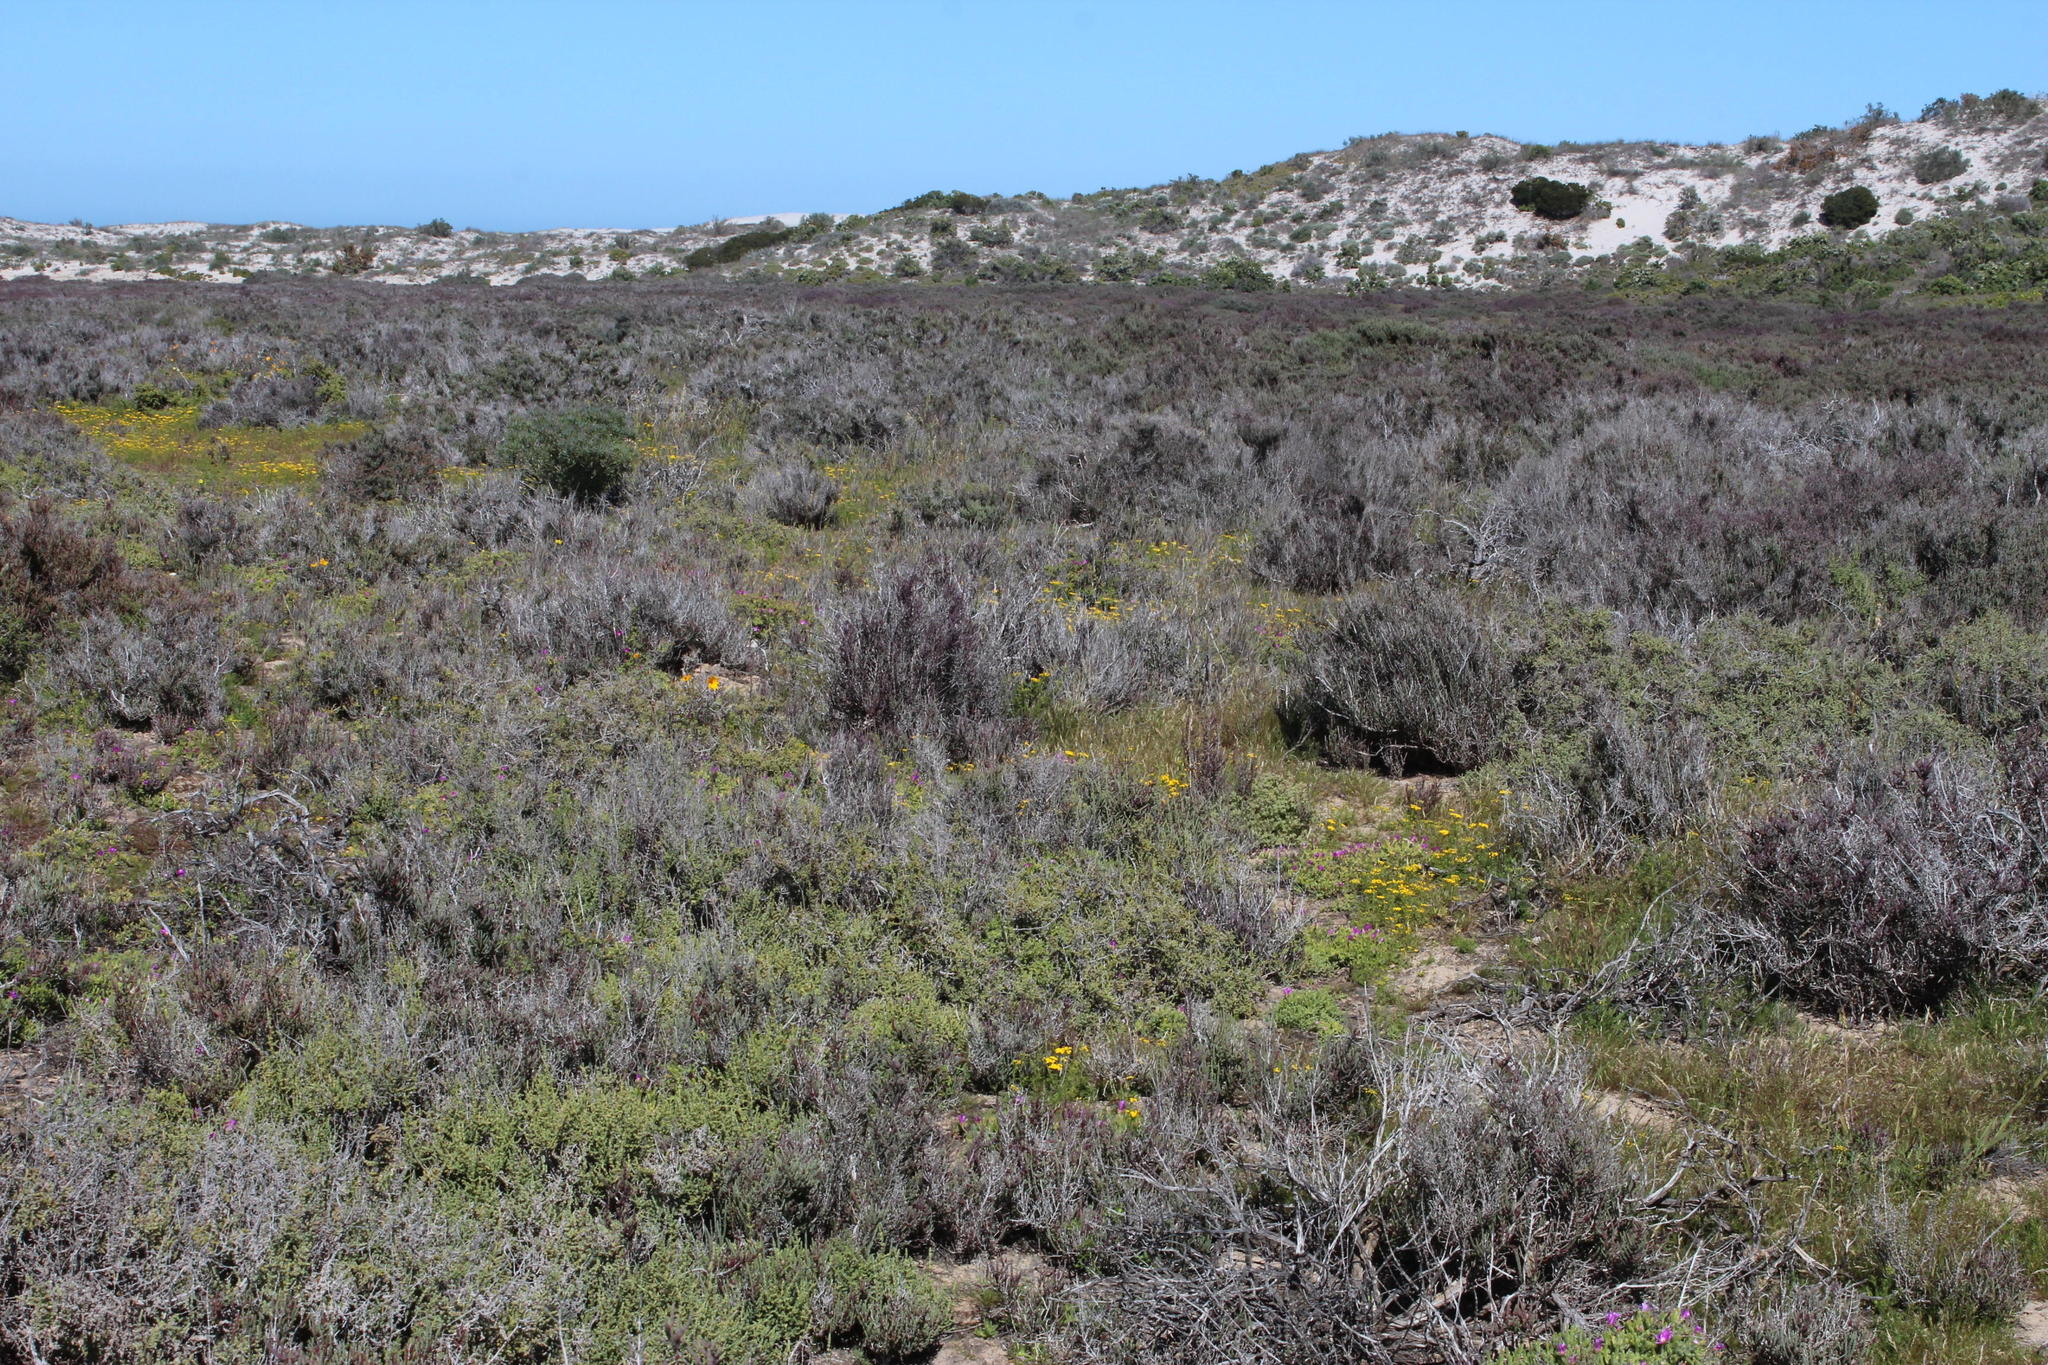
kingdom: Plantae
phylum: Tracheophyta
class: Magnoliopsida
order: Caryophyllales
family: Amaranthaceae
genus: Salicornia
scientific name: Salicornia pillansii
